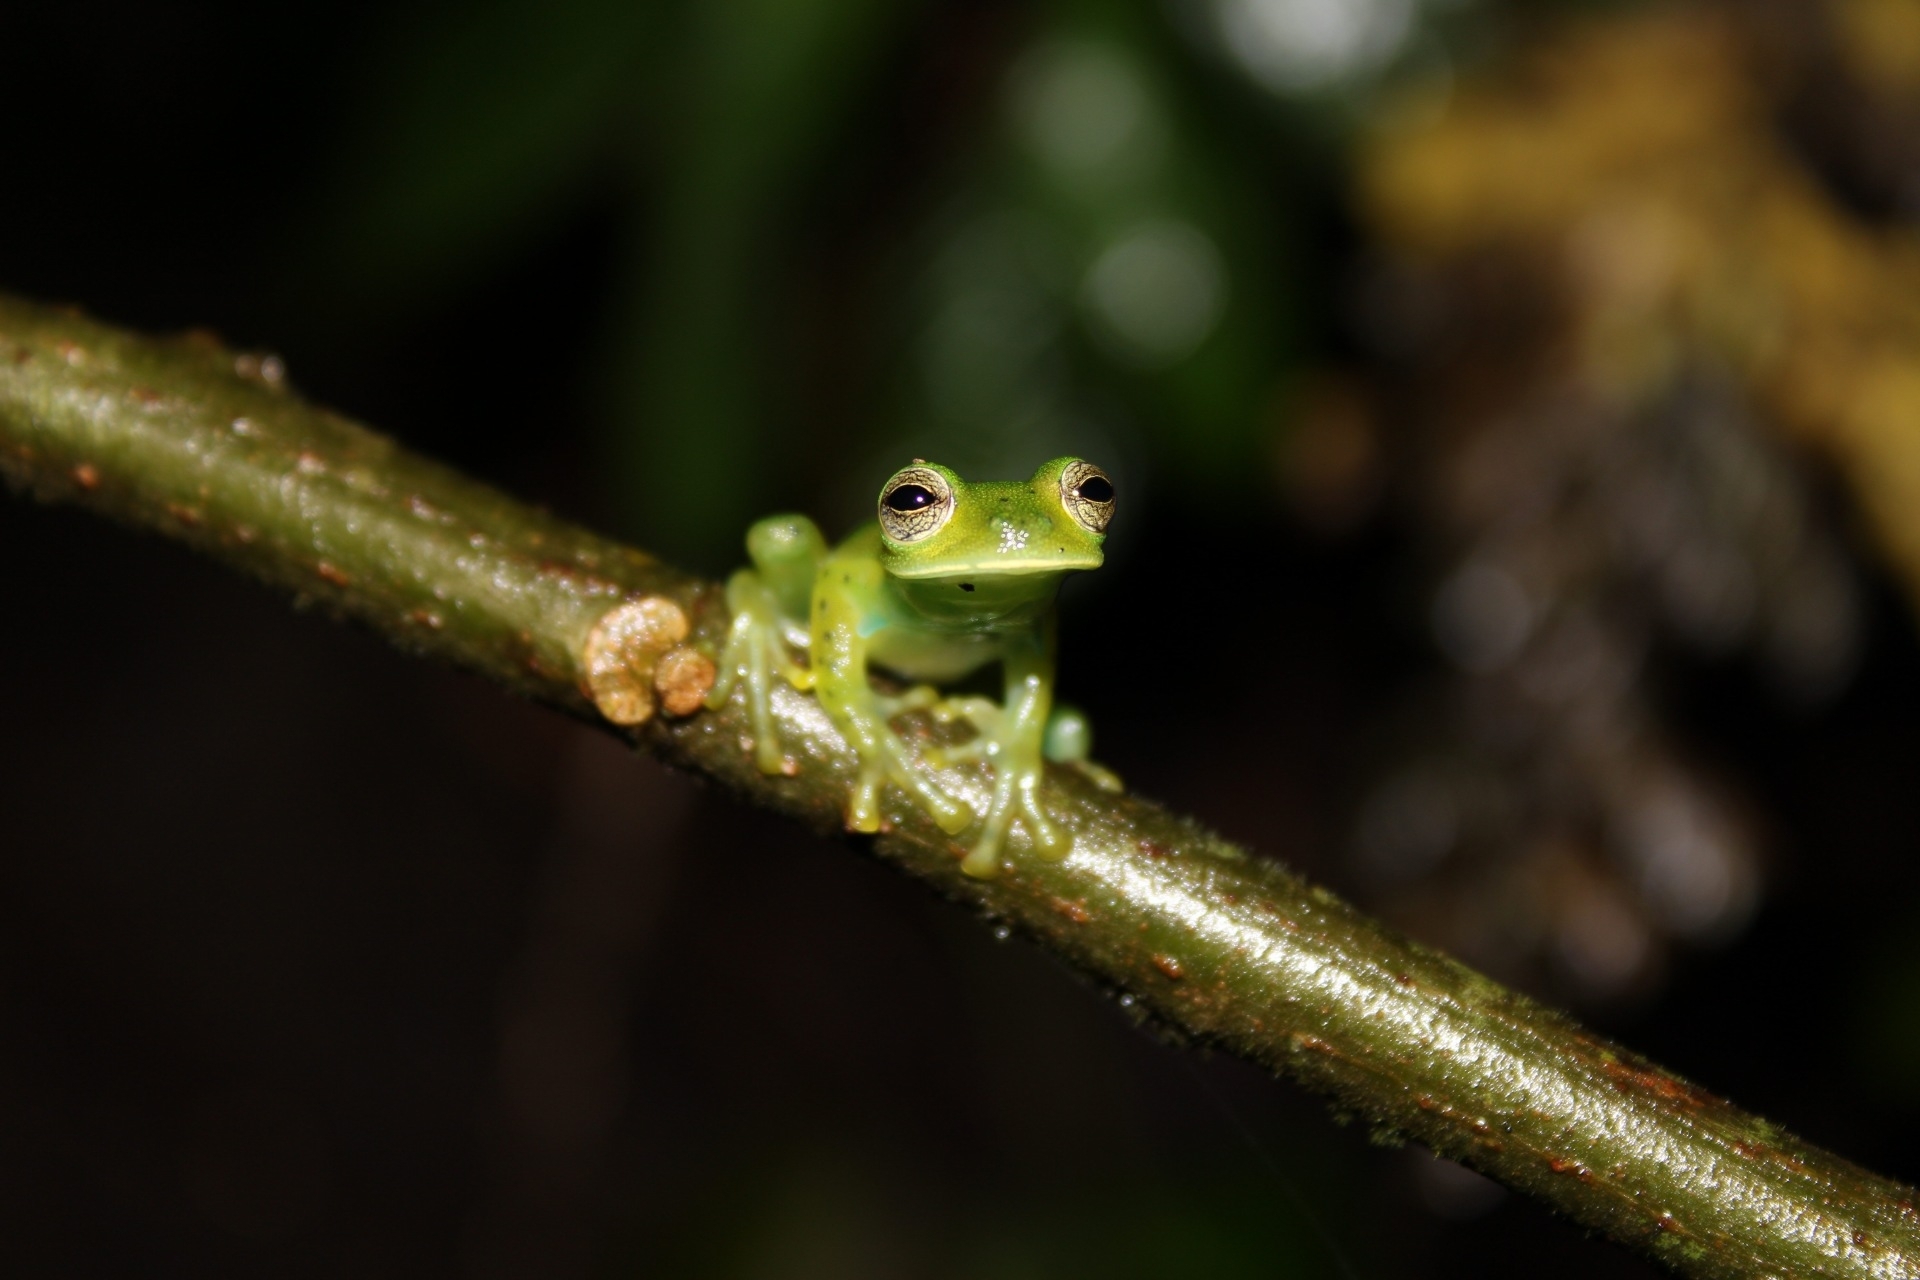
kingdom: Animalia
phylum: Chordata
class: Amphibia
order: Anura
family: Centrolenidae
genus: Espadarana
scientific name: Espadarana prosoblepon
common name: Rana de cristal variable
